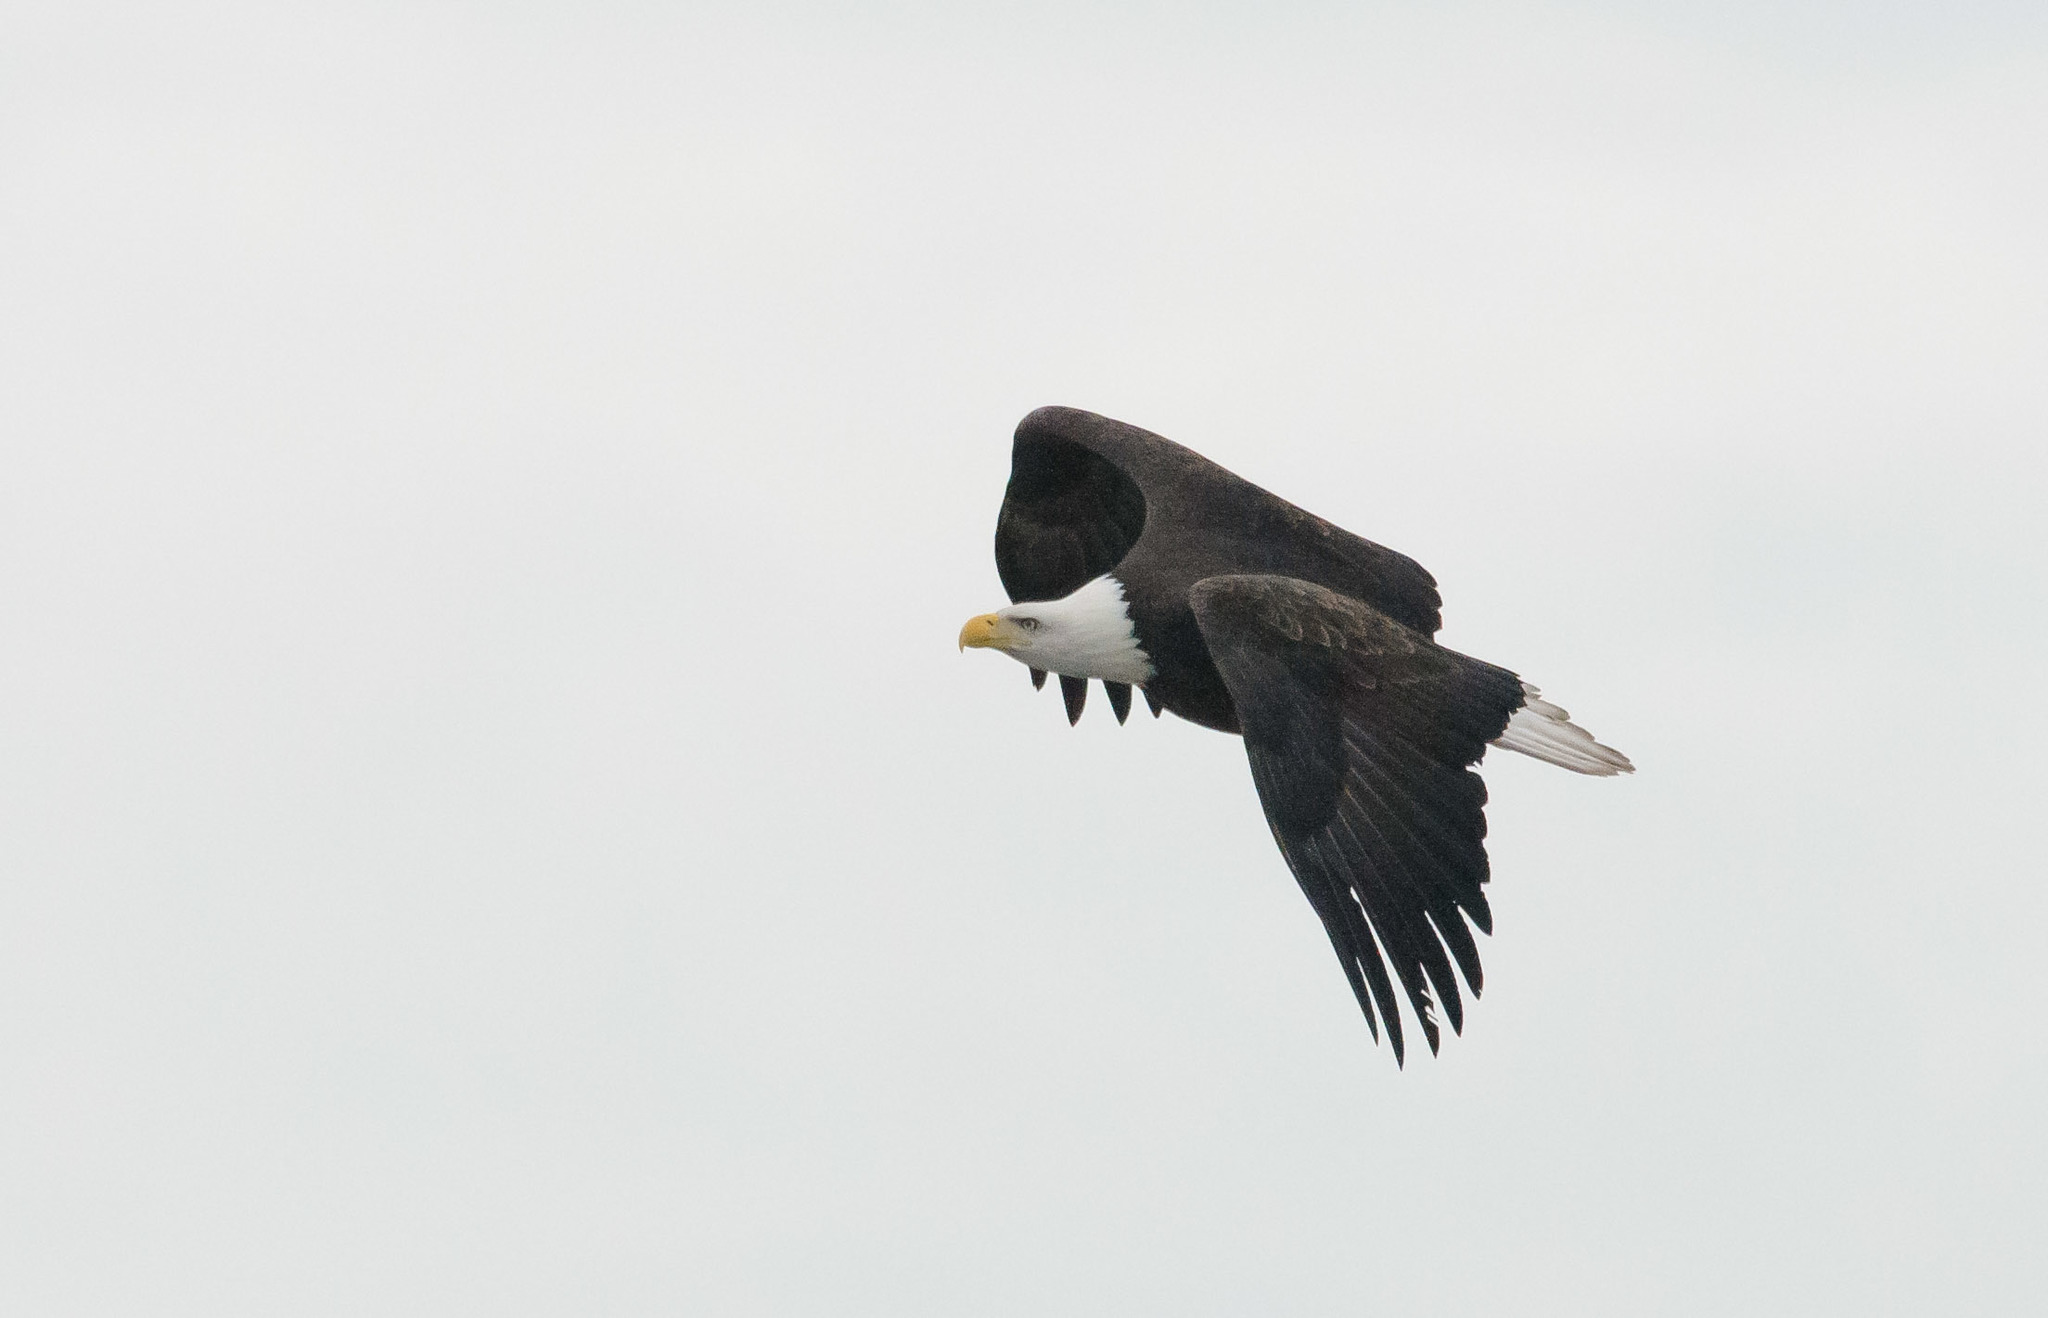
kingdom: Animalia
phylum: Chordata
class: Aves
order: Accipitriformes
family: Accipitridae
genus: Haliaeetus
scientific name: Haliaeetus leucocephalus
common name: Bald eagle
